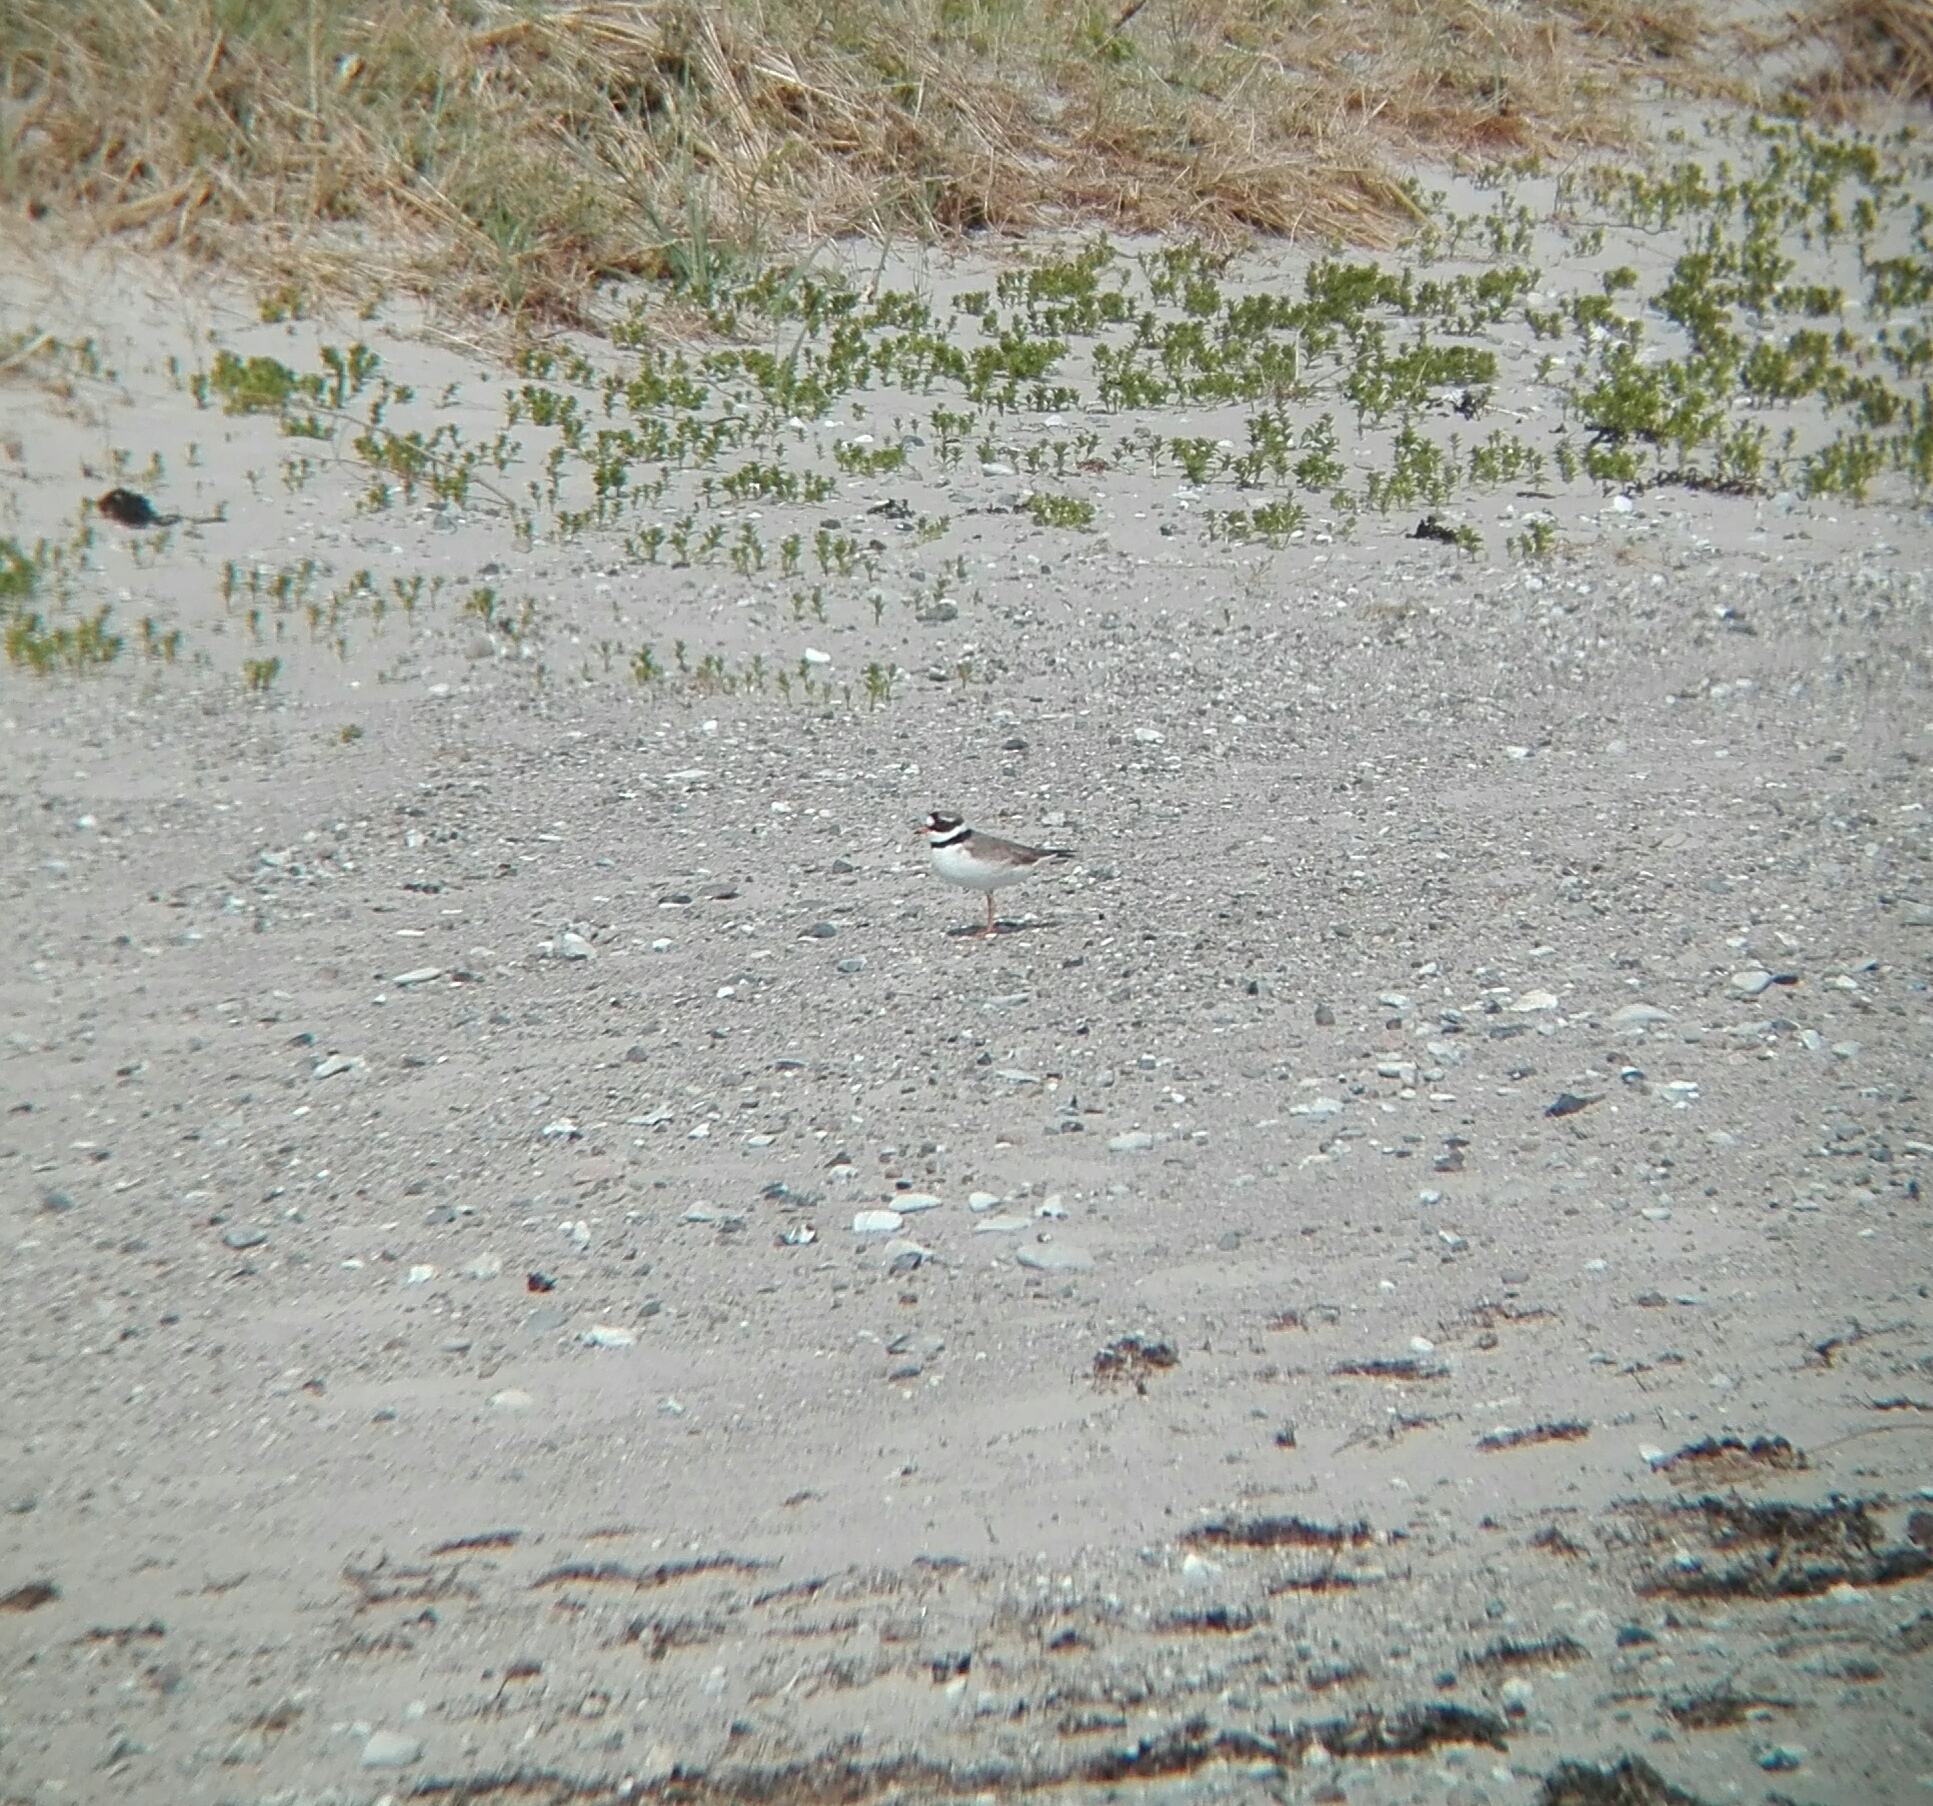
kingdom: Animalia
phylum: Chordata
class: Aves
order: Charadriiformes
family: Charadriidae
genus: Charadrius
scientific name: Charadrius hiaticula
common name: Common ringed plover
